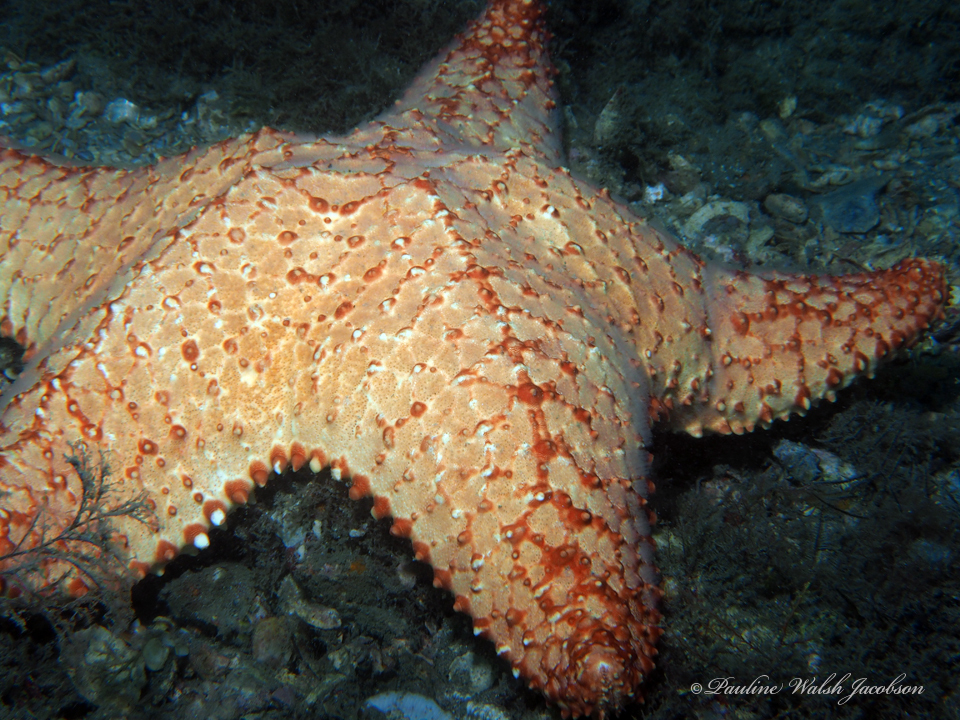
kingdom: Animalia
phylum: Echinodermata
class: Asteroidea
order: Valvatida
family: Oreasteridae
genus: Oreaster
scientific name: Oreaster reticulatus
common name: Cushion sea star
